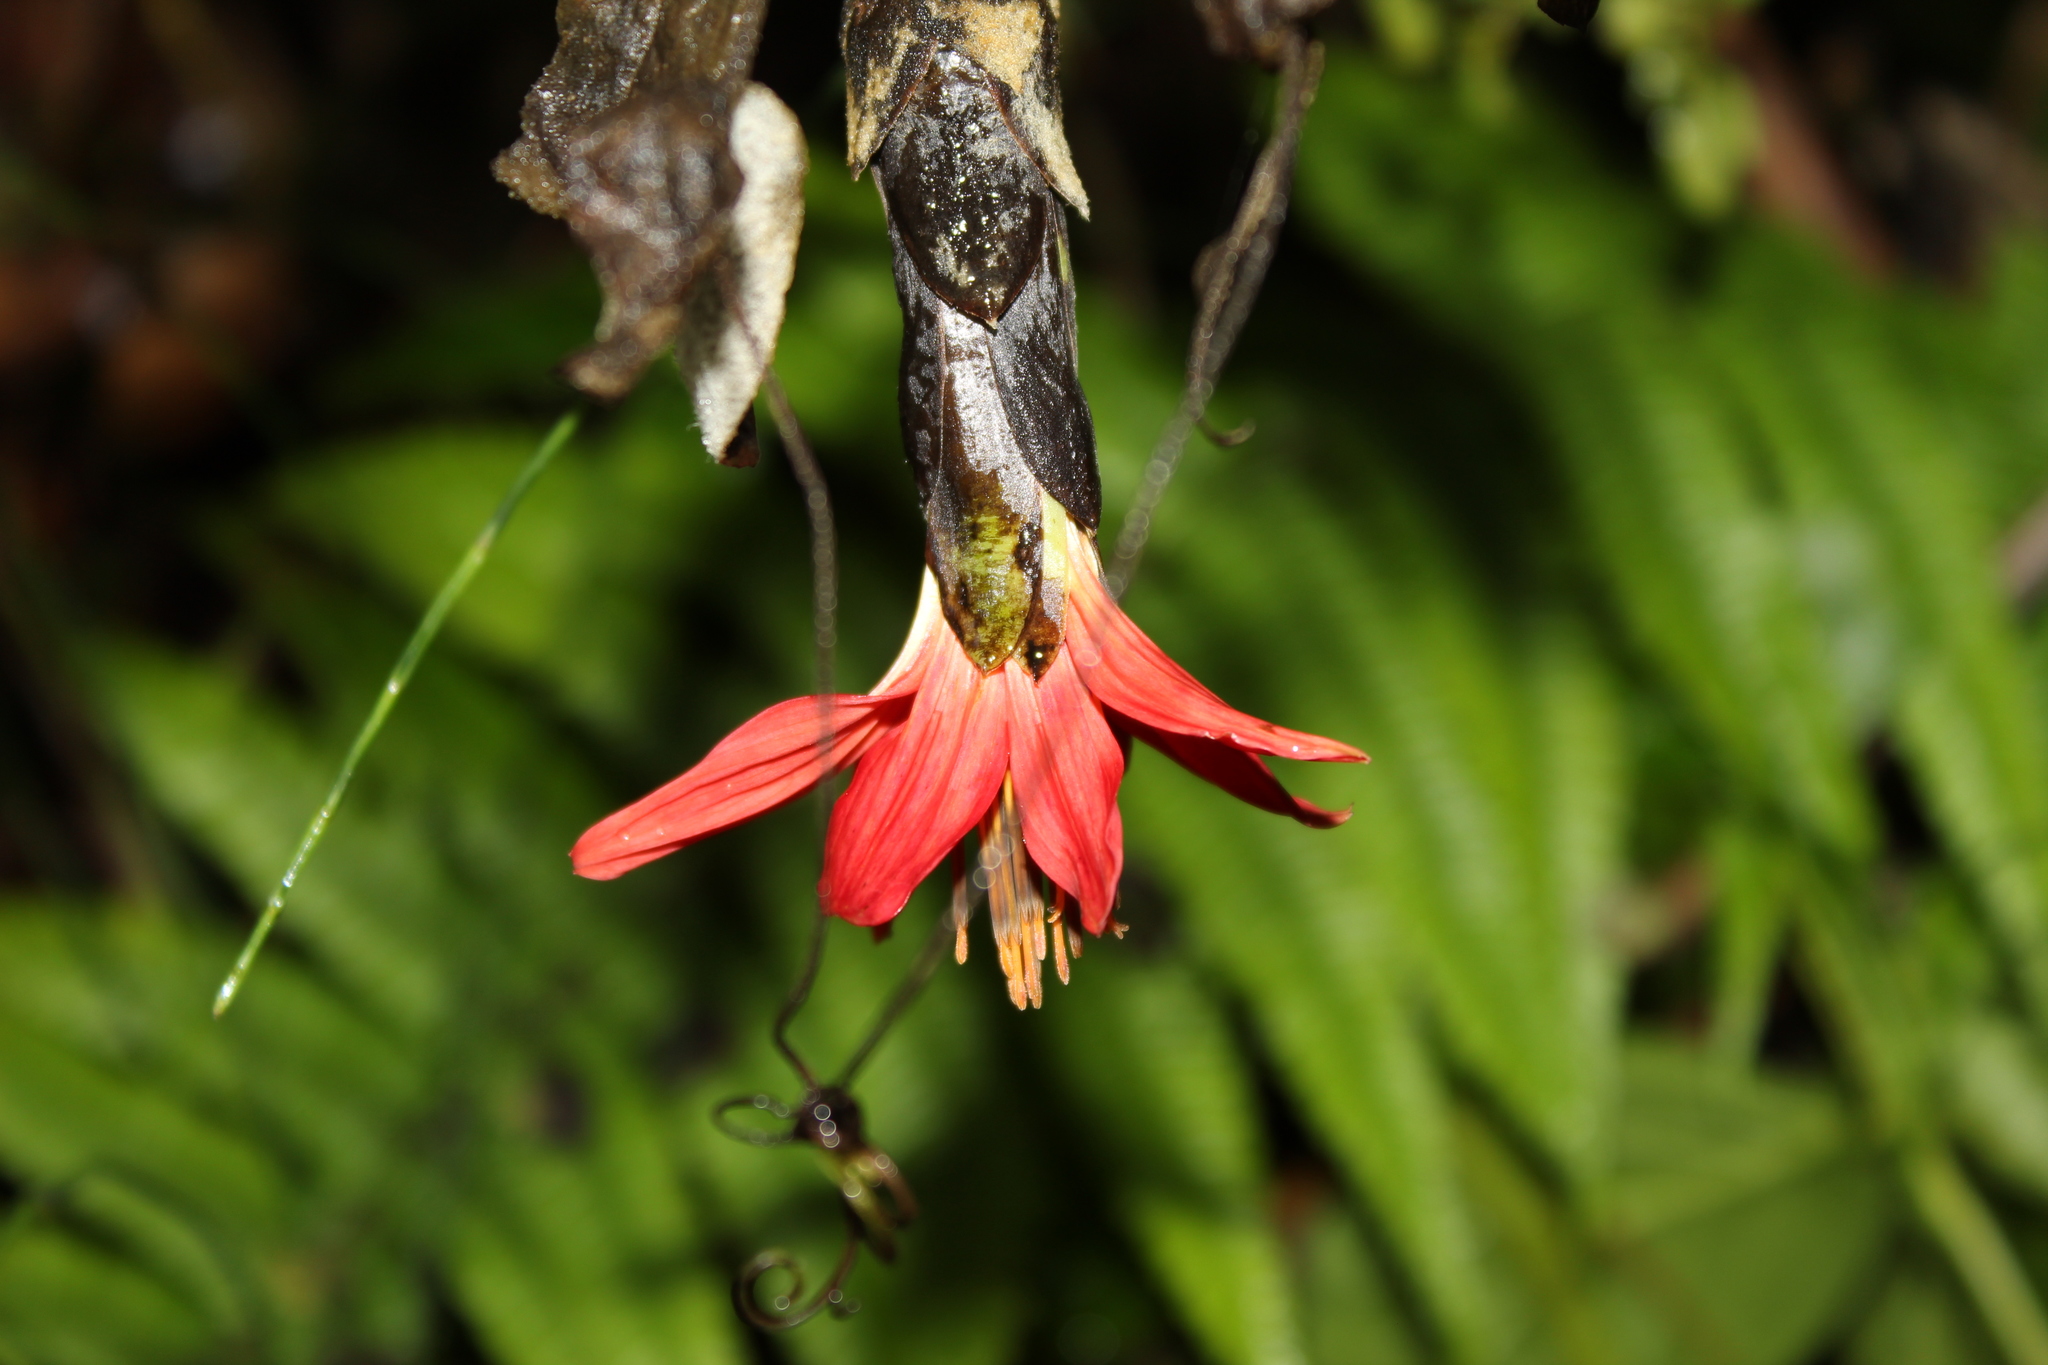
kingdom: Plantae
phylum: Tracheophyta
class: Magnoliopsida
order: Asterales
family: Asteraceae
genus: Mutisia
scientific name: Mutisia clematis
